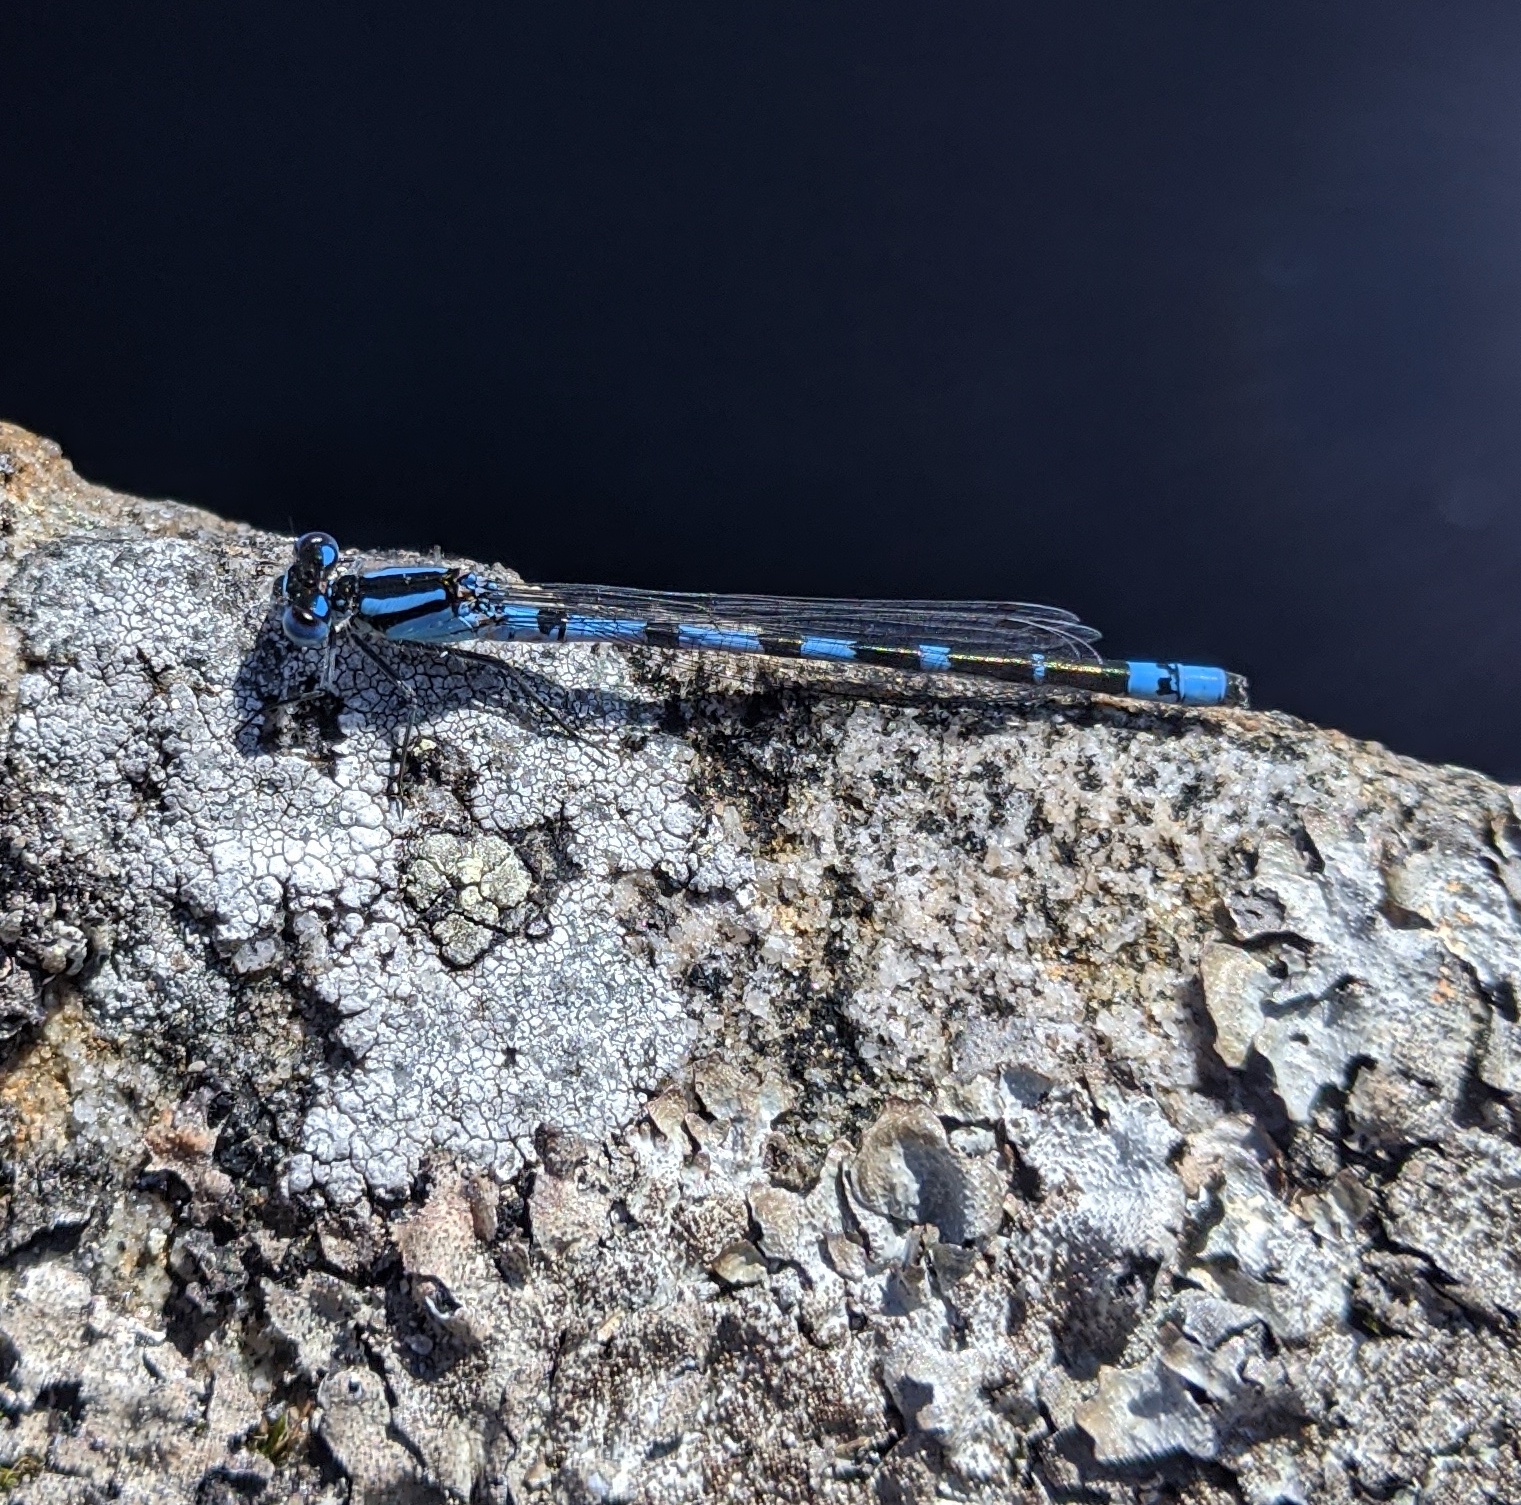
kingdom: Animalia
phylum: Arthropoda
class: Insecta
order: Odonata
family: Coenagrionidae
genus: Enallagma
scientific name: Enallagma cyathigerum
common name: Common blue damselfly
